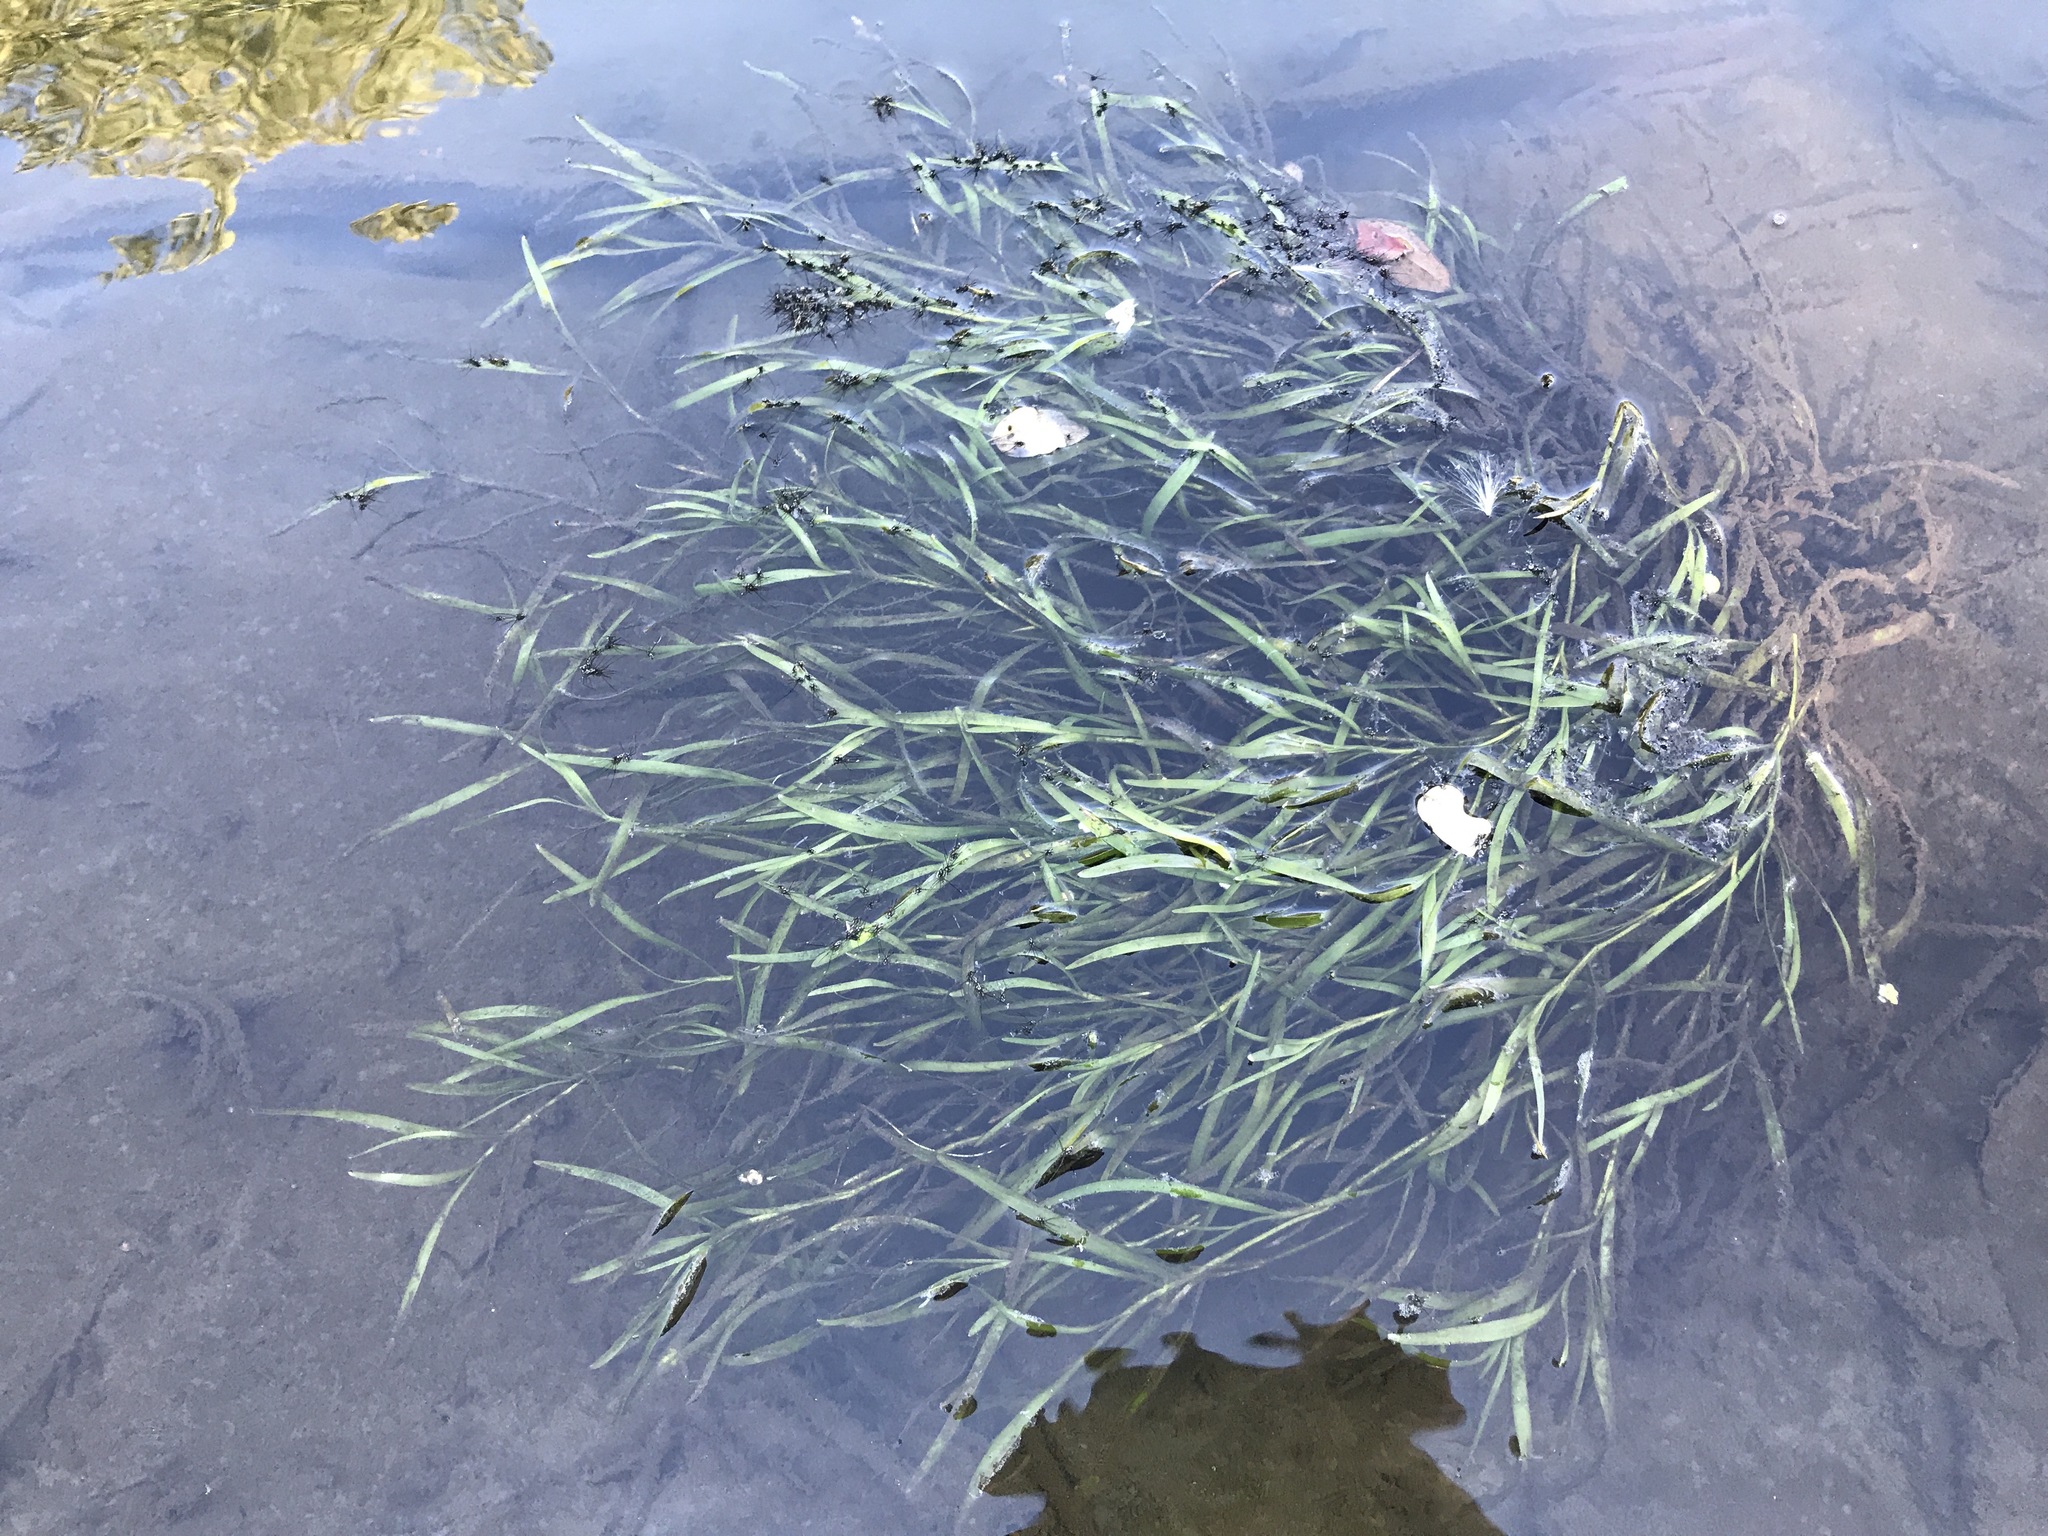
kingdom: Plantae
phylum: Tracheophyta
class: Liliopsida
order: Commelinales
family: Pontederiaceae
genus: Heteranthera
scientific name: Heteranthera dubia
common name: Grass-leaved mud plantain
